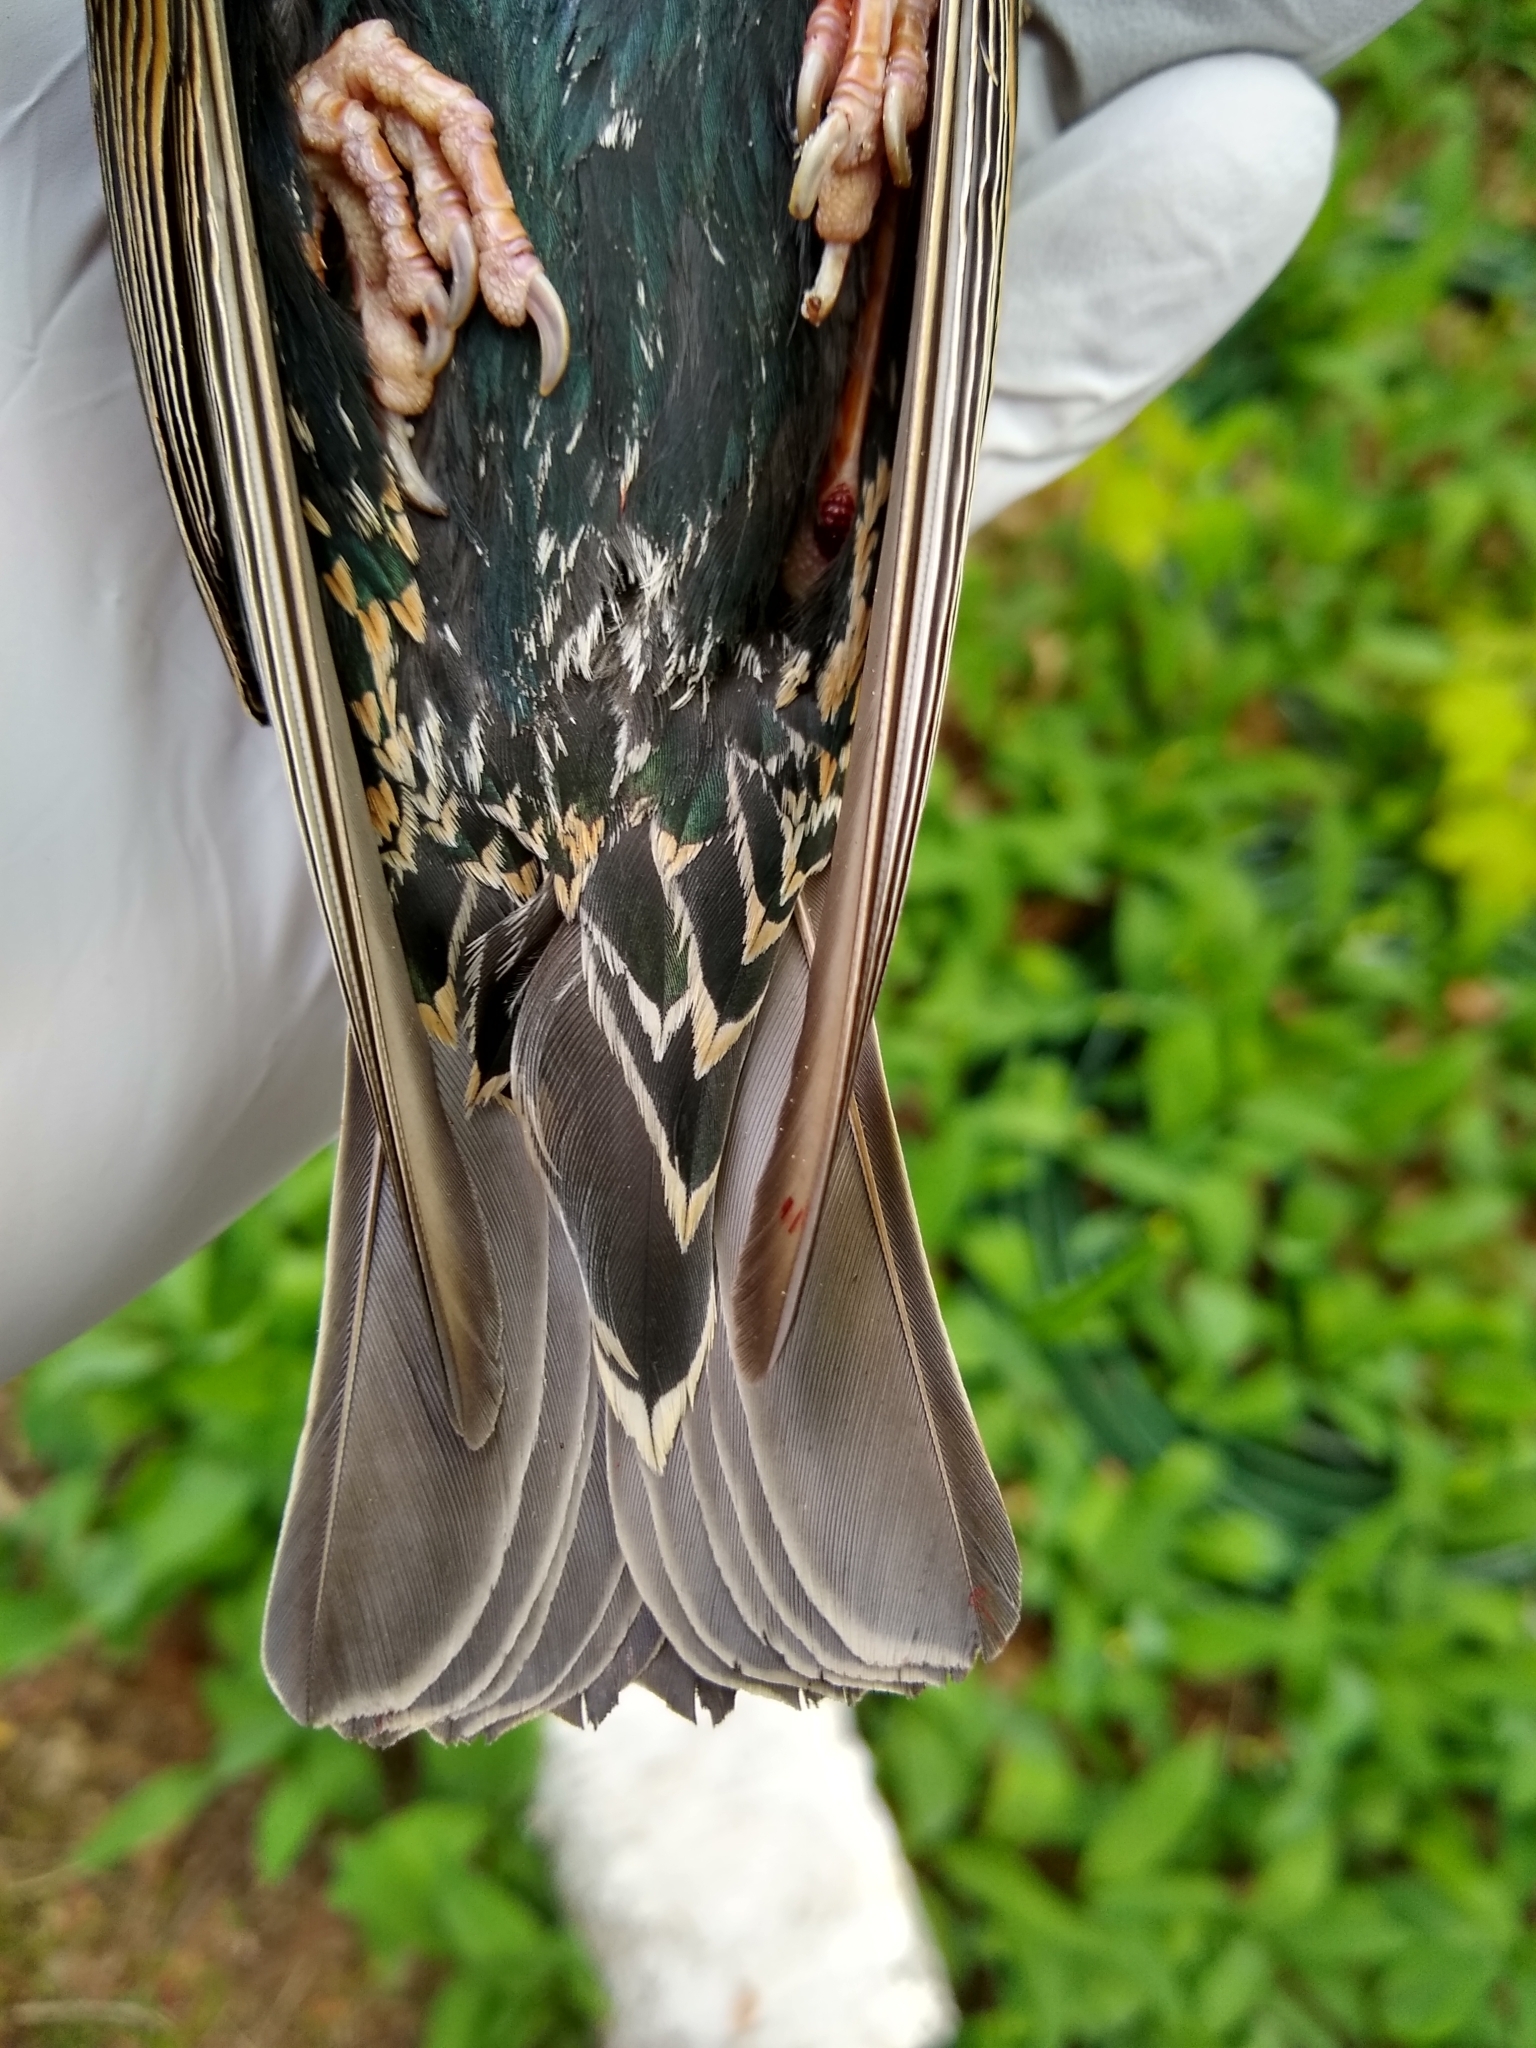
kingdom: Animalia
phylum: Chordata
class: Aves
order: Passeriformes
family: Sturnidae
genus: Sturnus
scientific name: Sturnus vulgaris
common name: Common starling
